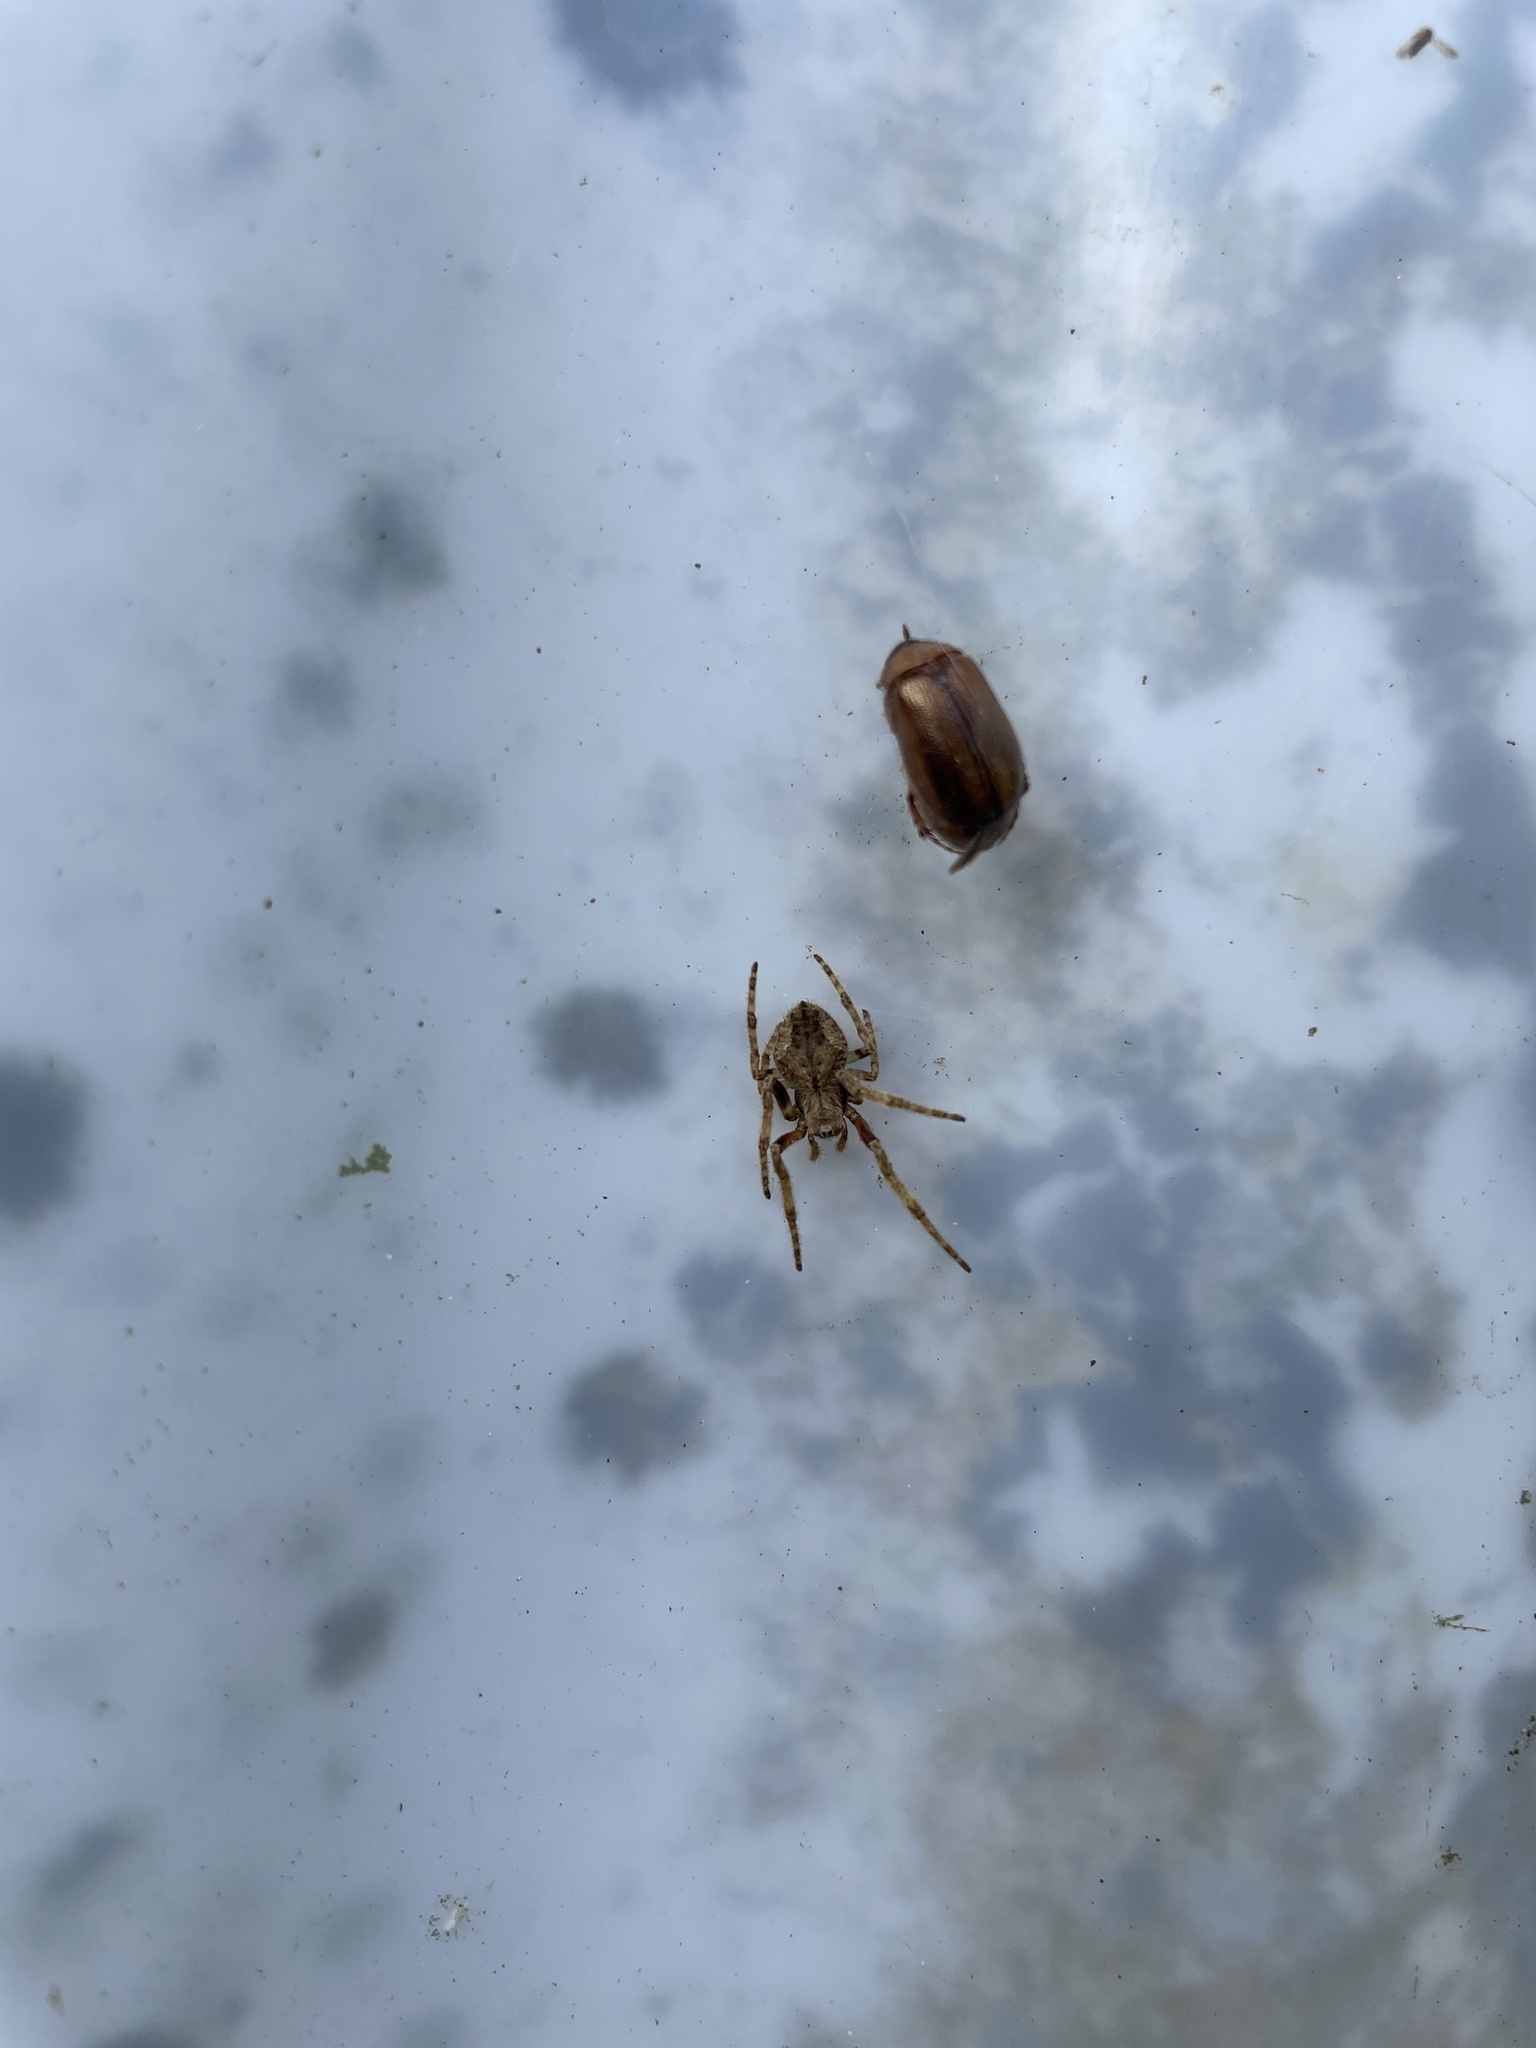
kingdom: Animalia
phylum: Arthropoda
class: Arachnida
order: Araneae
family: Araneidae
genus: Eriophora
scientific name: Eriophora pustulosa
